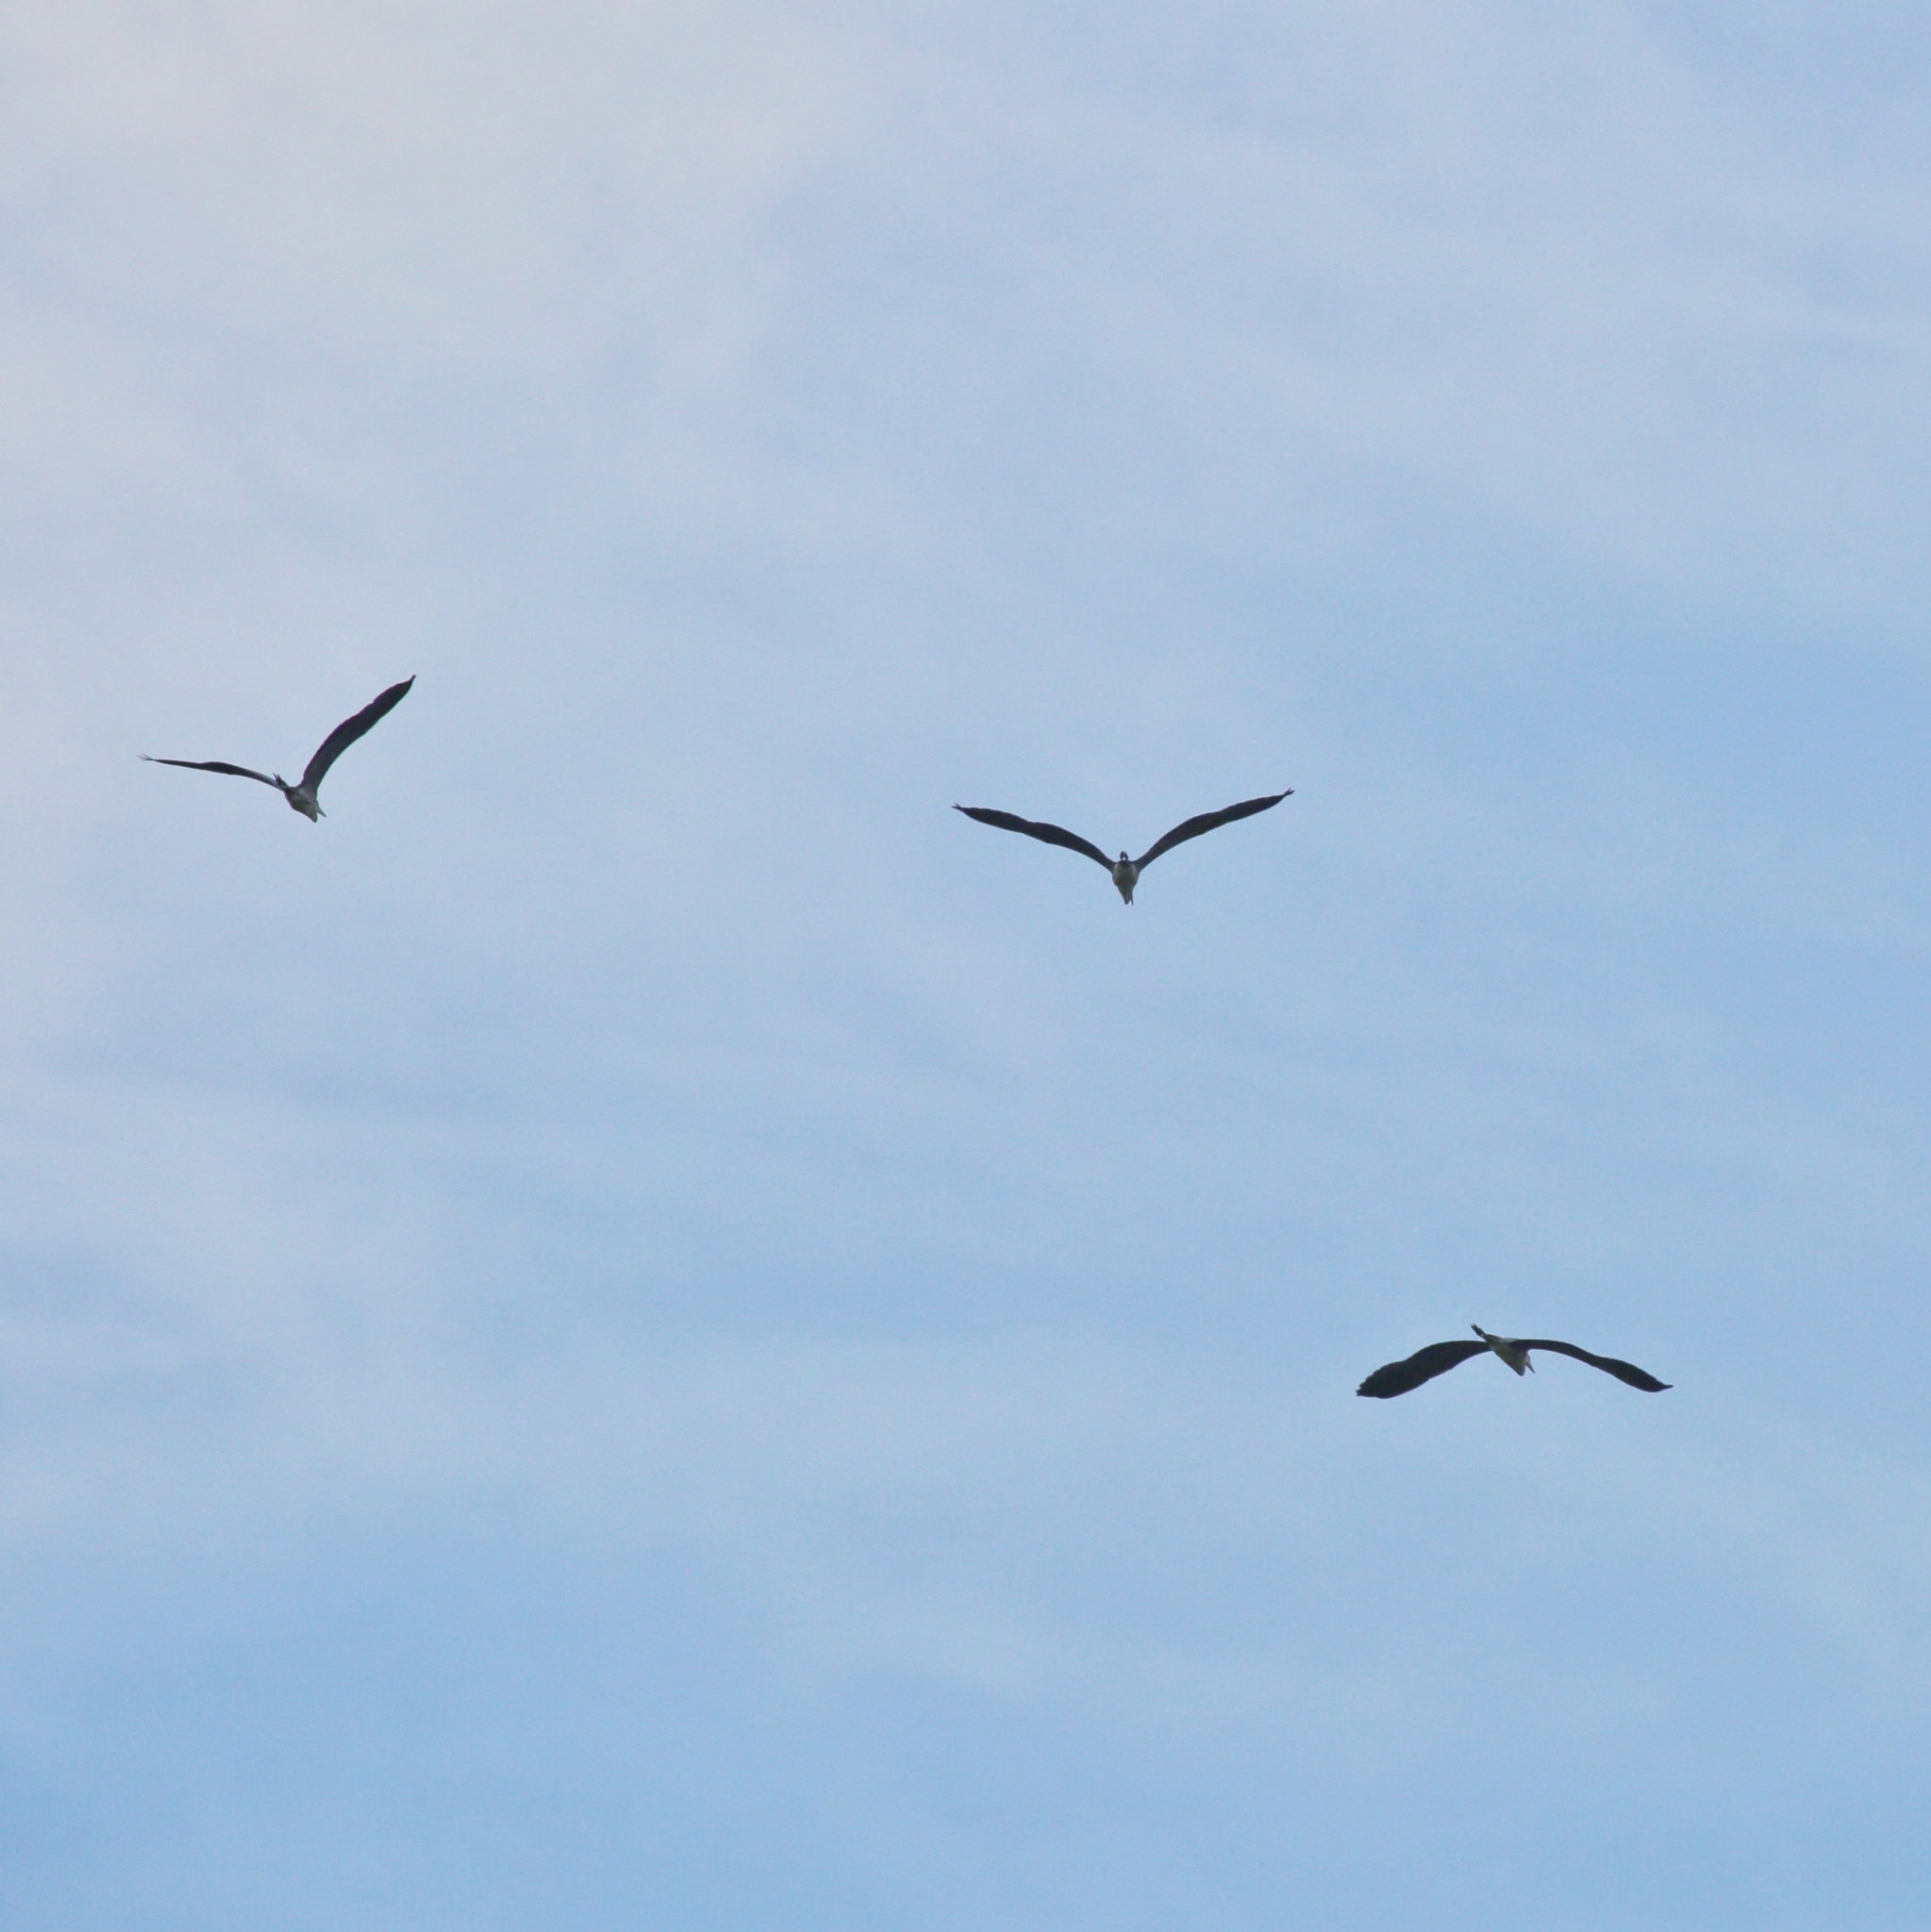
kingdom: Animalia
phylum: Chordata
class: Aves
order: Pelecaniformes
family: Ardeidae
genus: Ardea
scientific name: Ardea cinerea
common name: Grey heron
